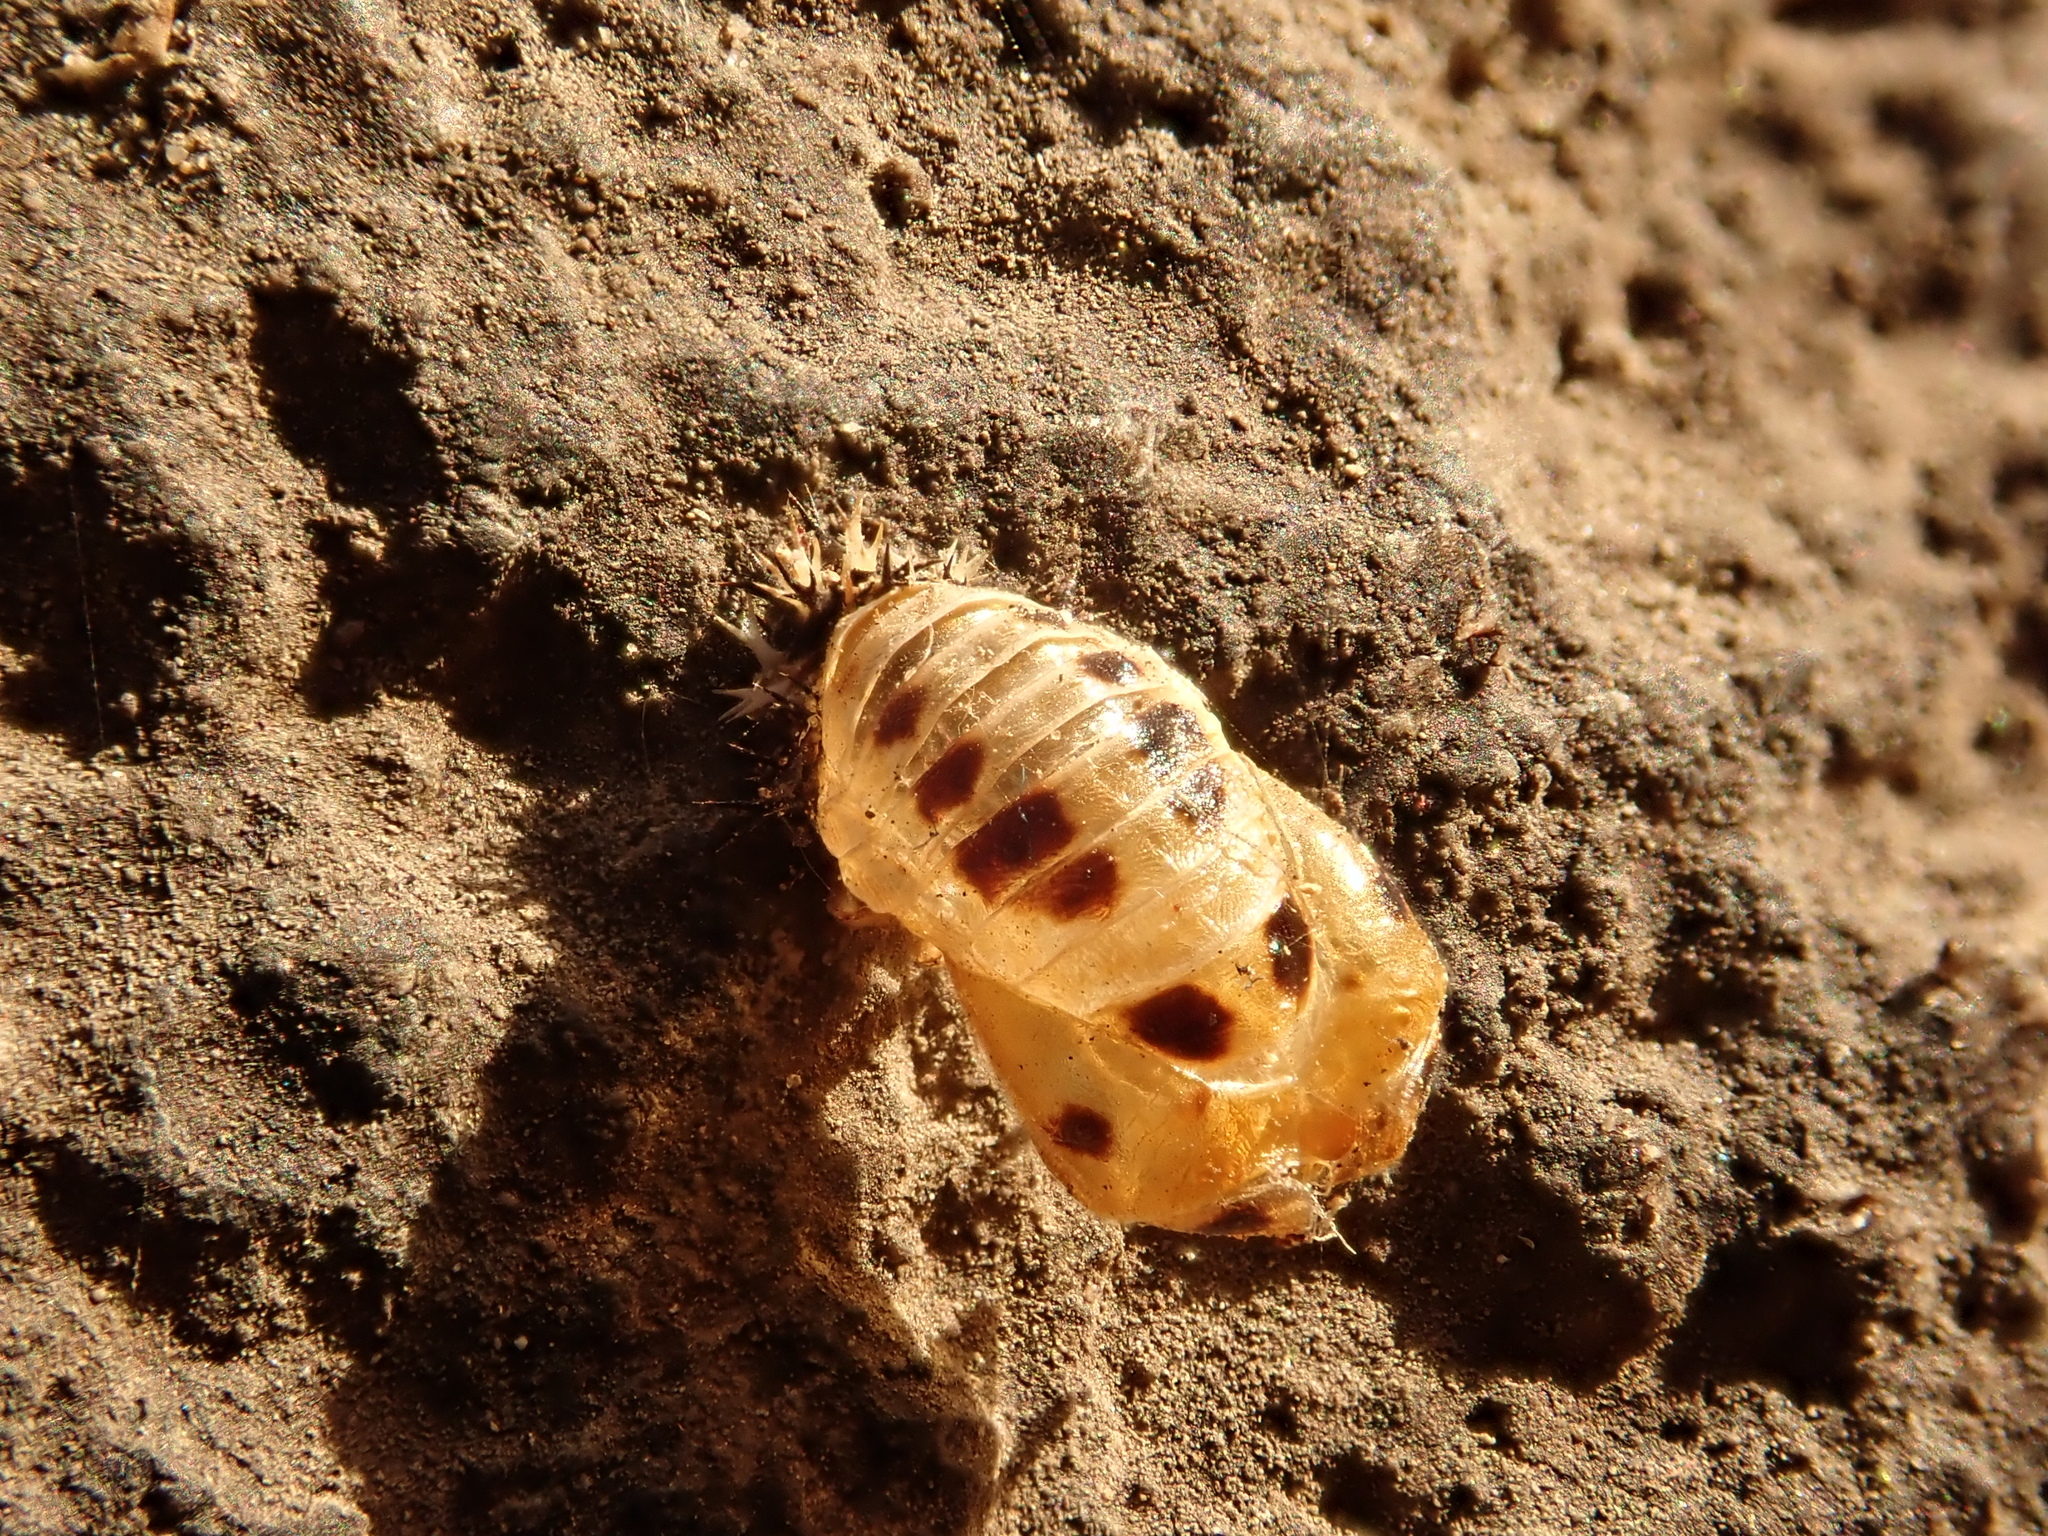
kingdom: Animalia
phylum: Arthropoda
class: Insecta
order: Coleoptera
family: Coccinellidae
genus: Harmonia
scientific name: Harmonia axyridis
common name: Harlequin ladybird
